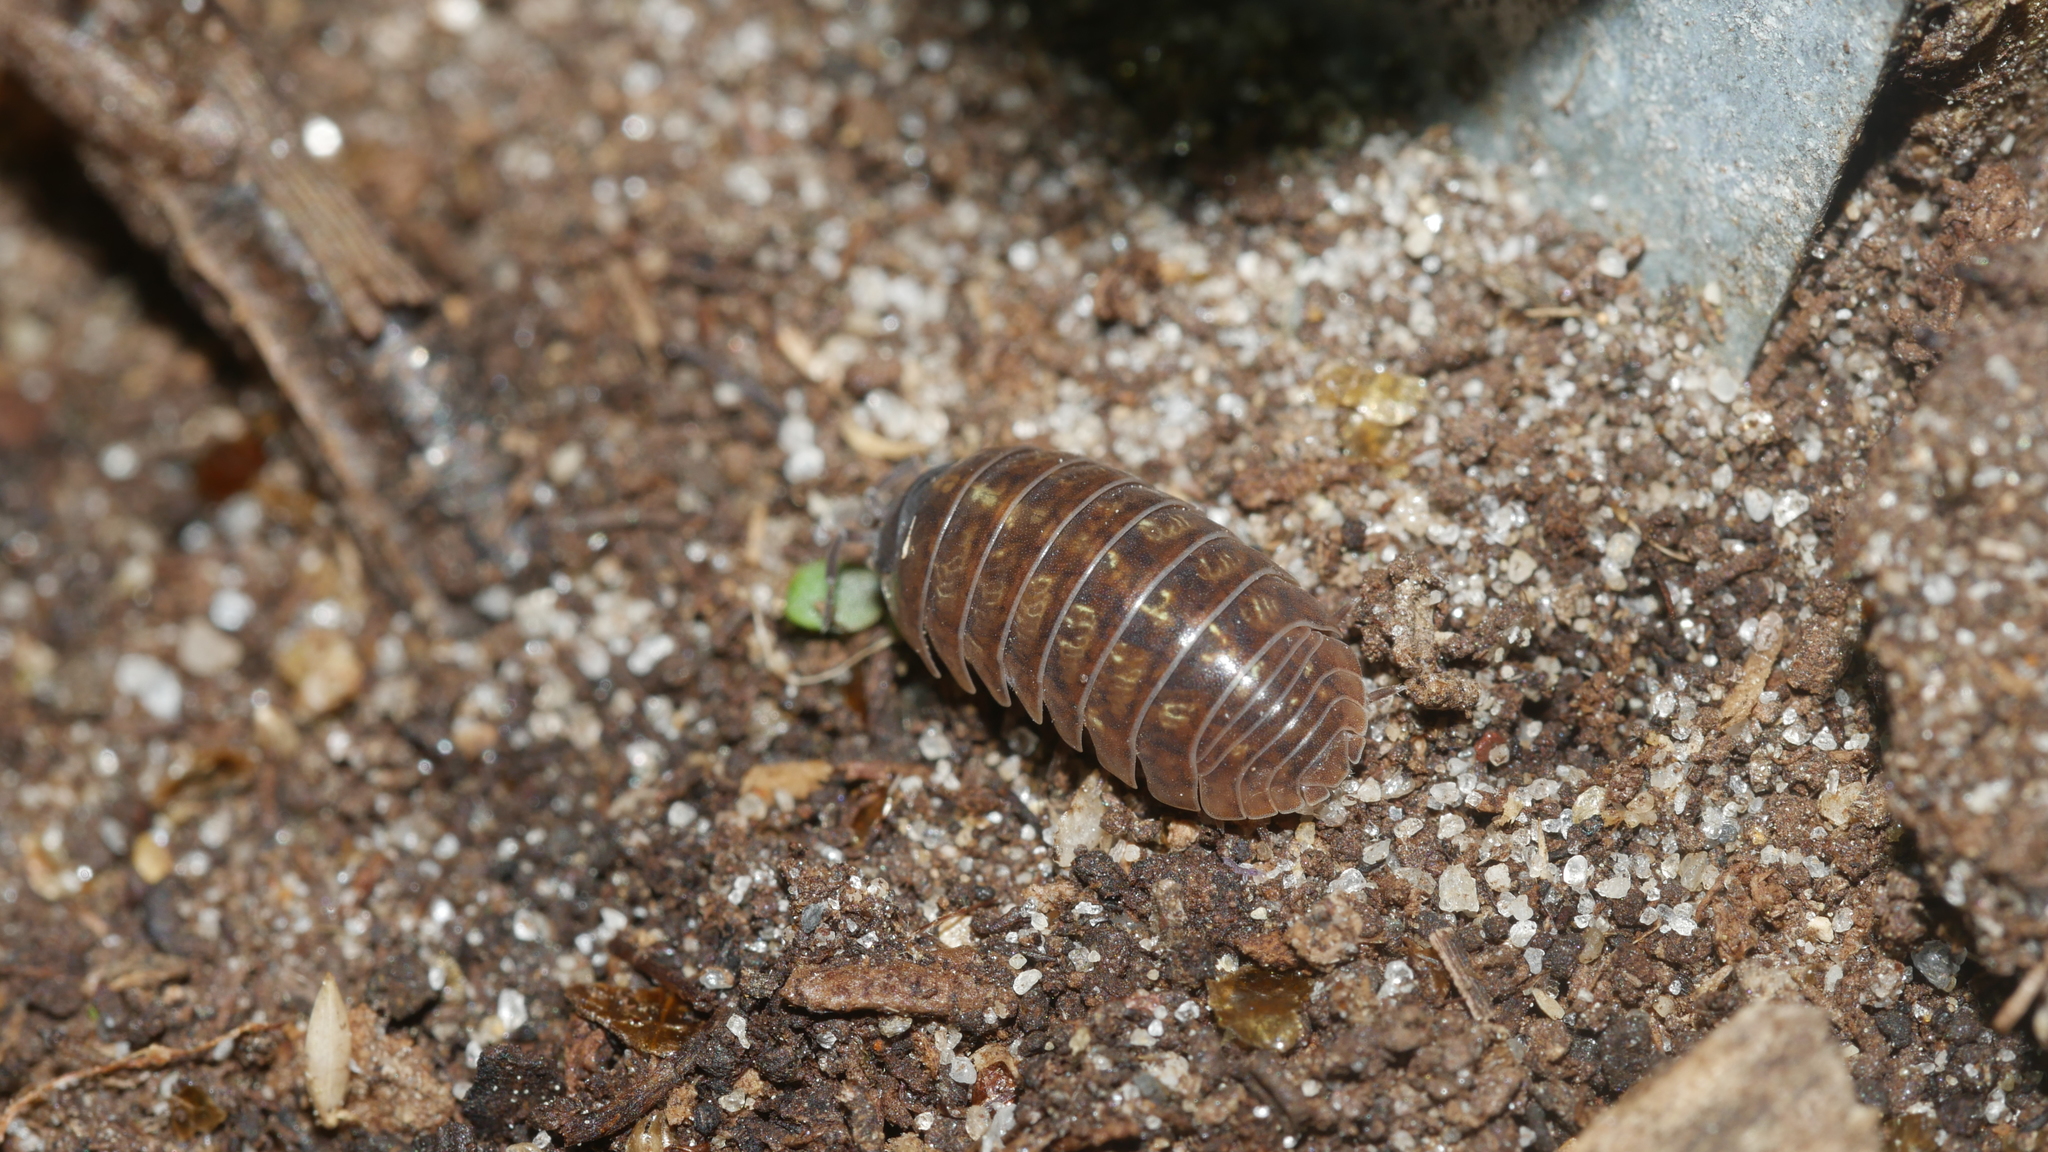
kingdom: Animalia
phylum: Arthropoda
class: Malacostraca
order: Isopoda
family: Armadillidiidae
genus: Armadillidium
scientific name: Armadillidium vulgare
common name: Common pill woodlouse
